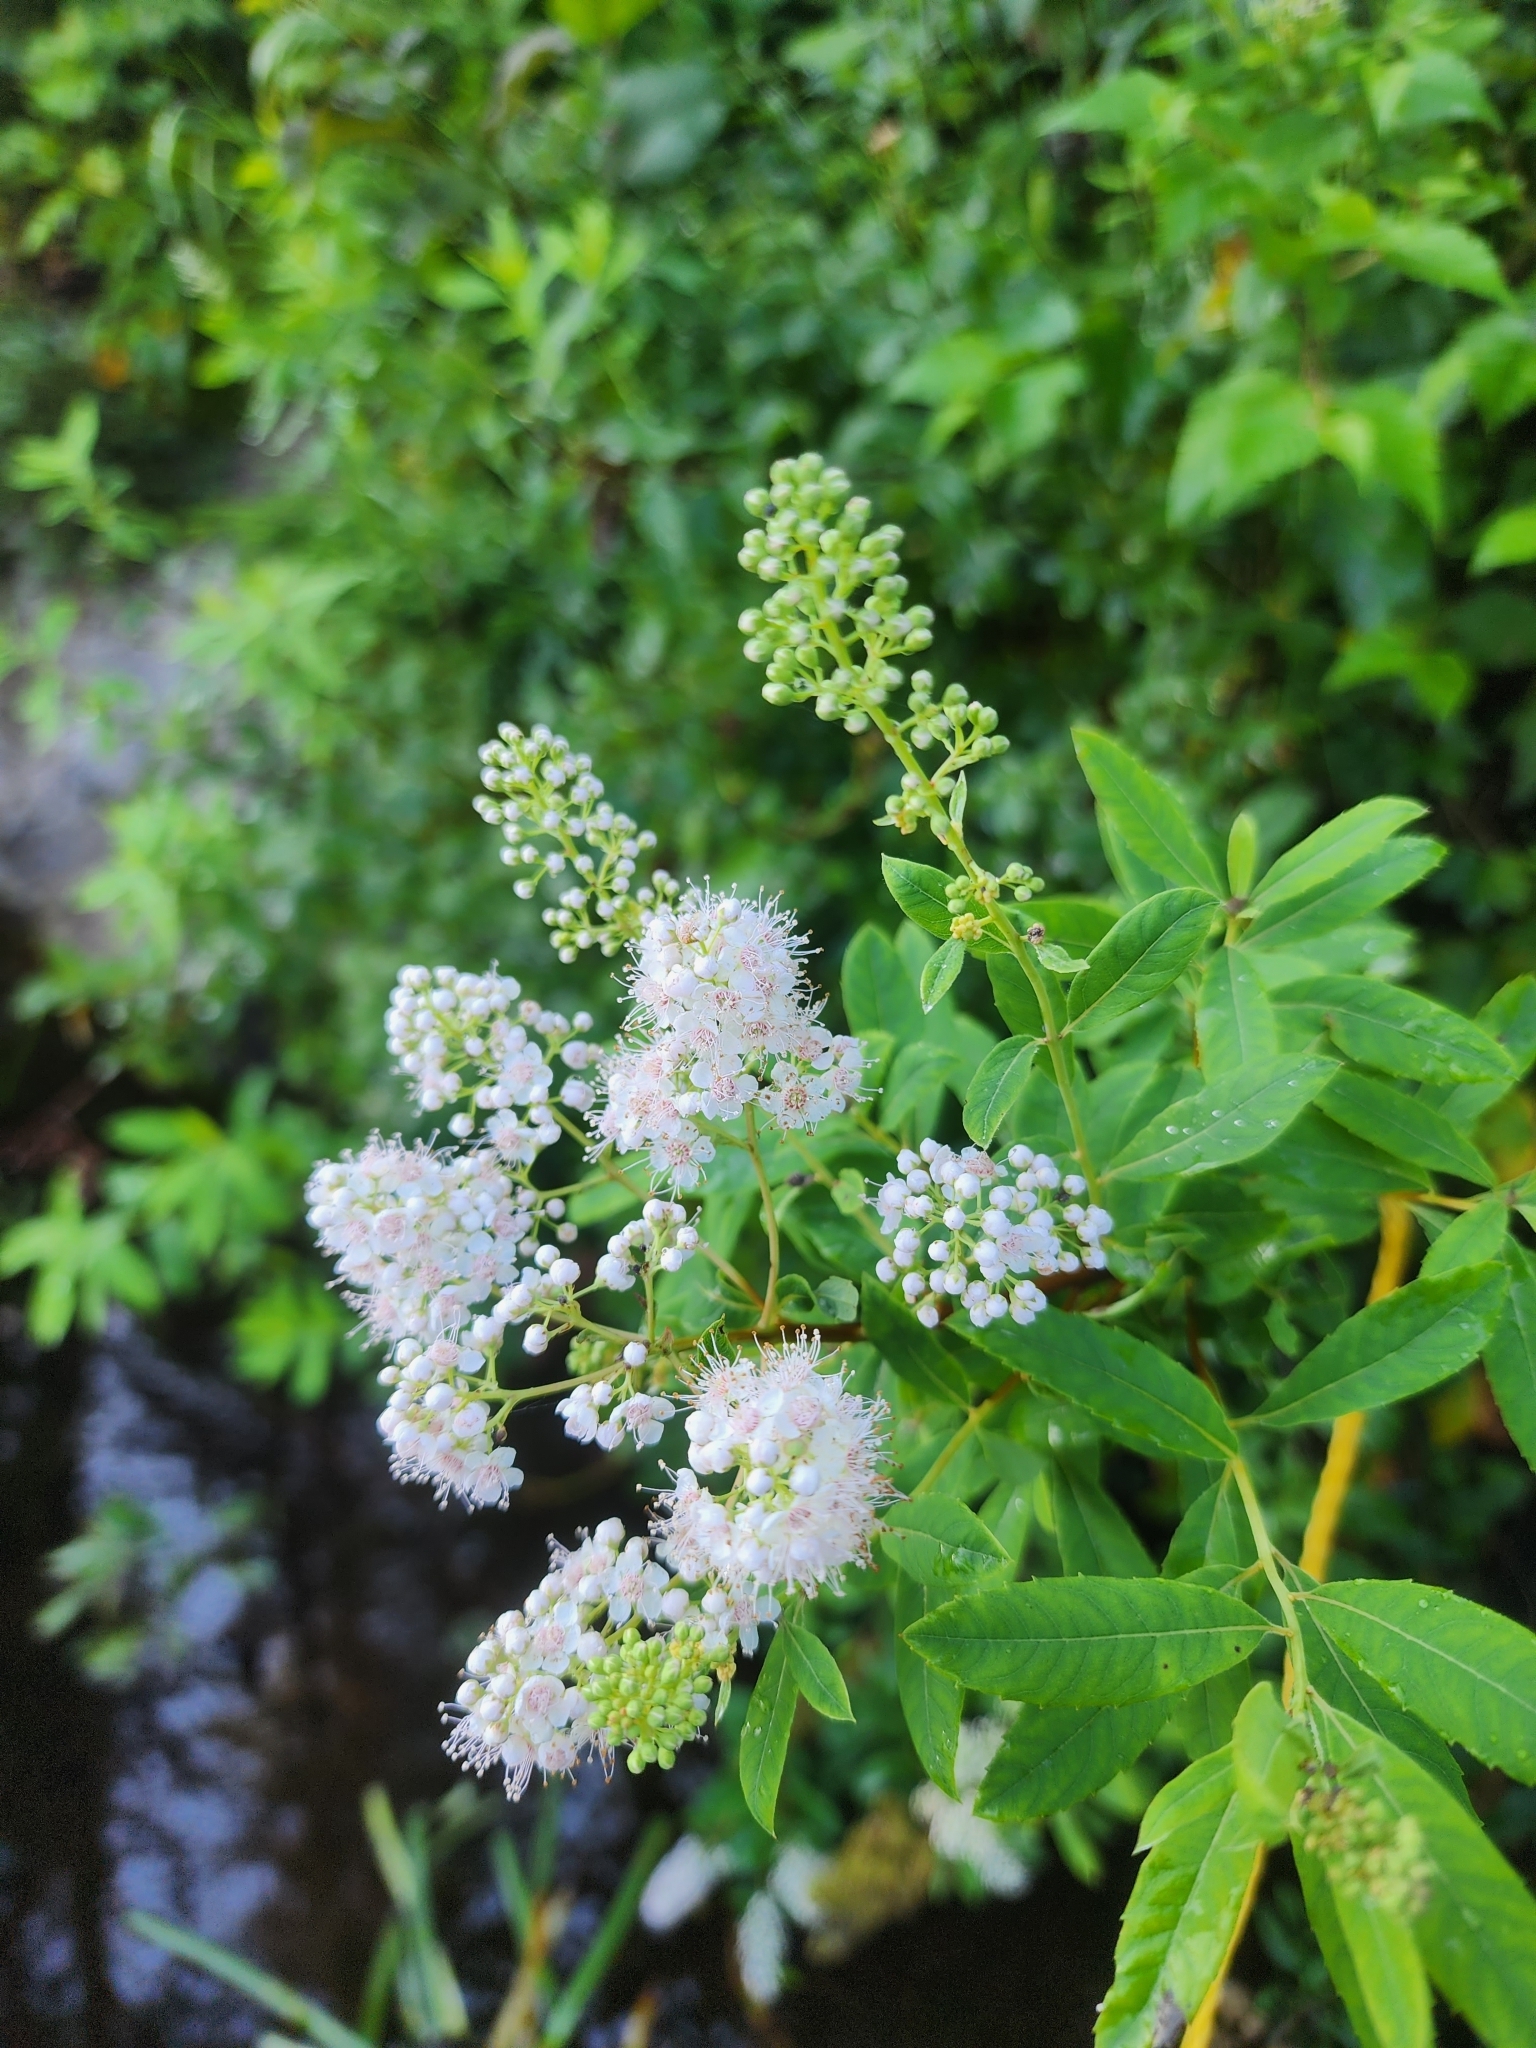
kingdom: Plantae
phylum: Tracheophyta
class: Magnoliopsida
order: Rosales
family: Rosaceae
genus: Spiraea
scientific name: Spiraea alba
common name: Pale bridewort
